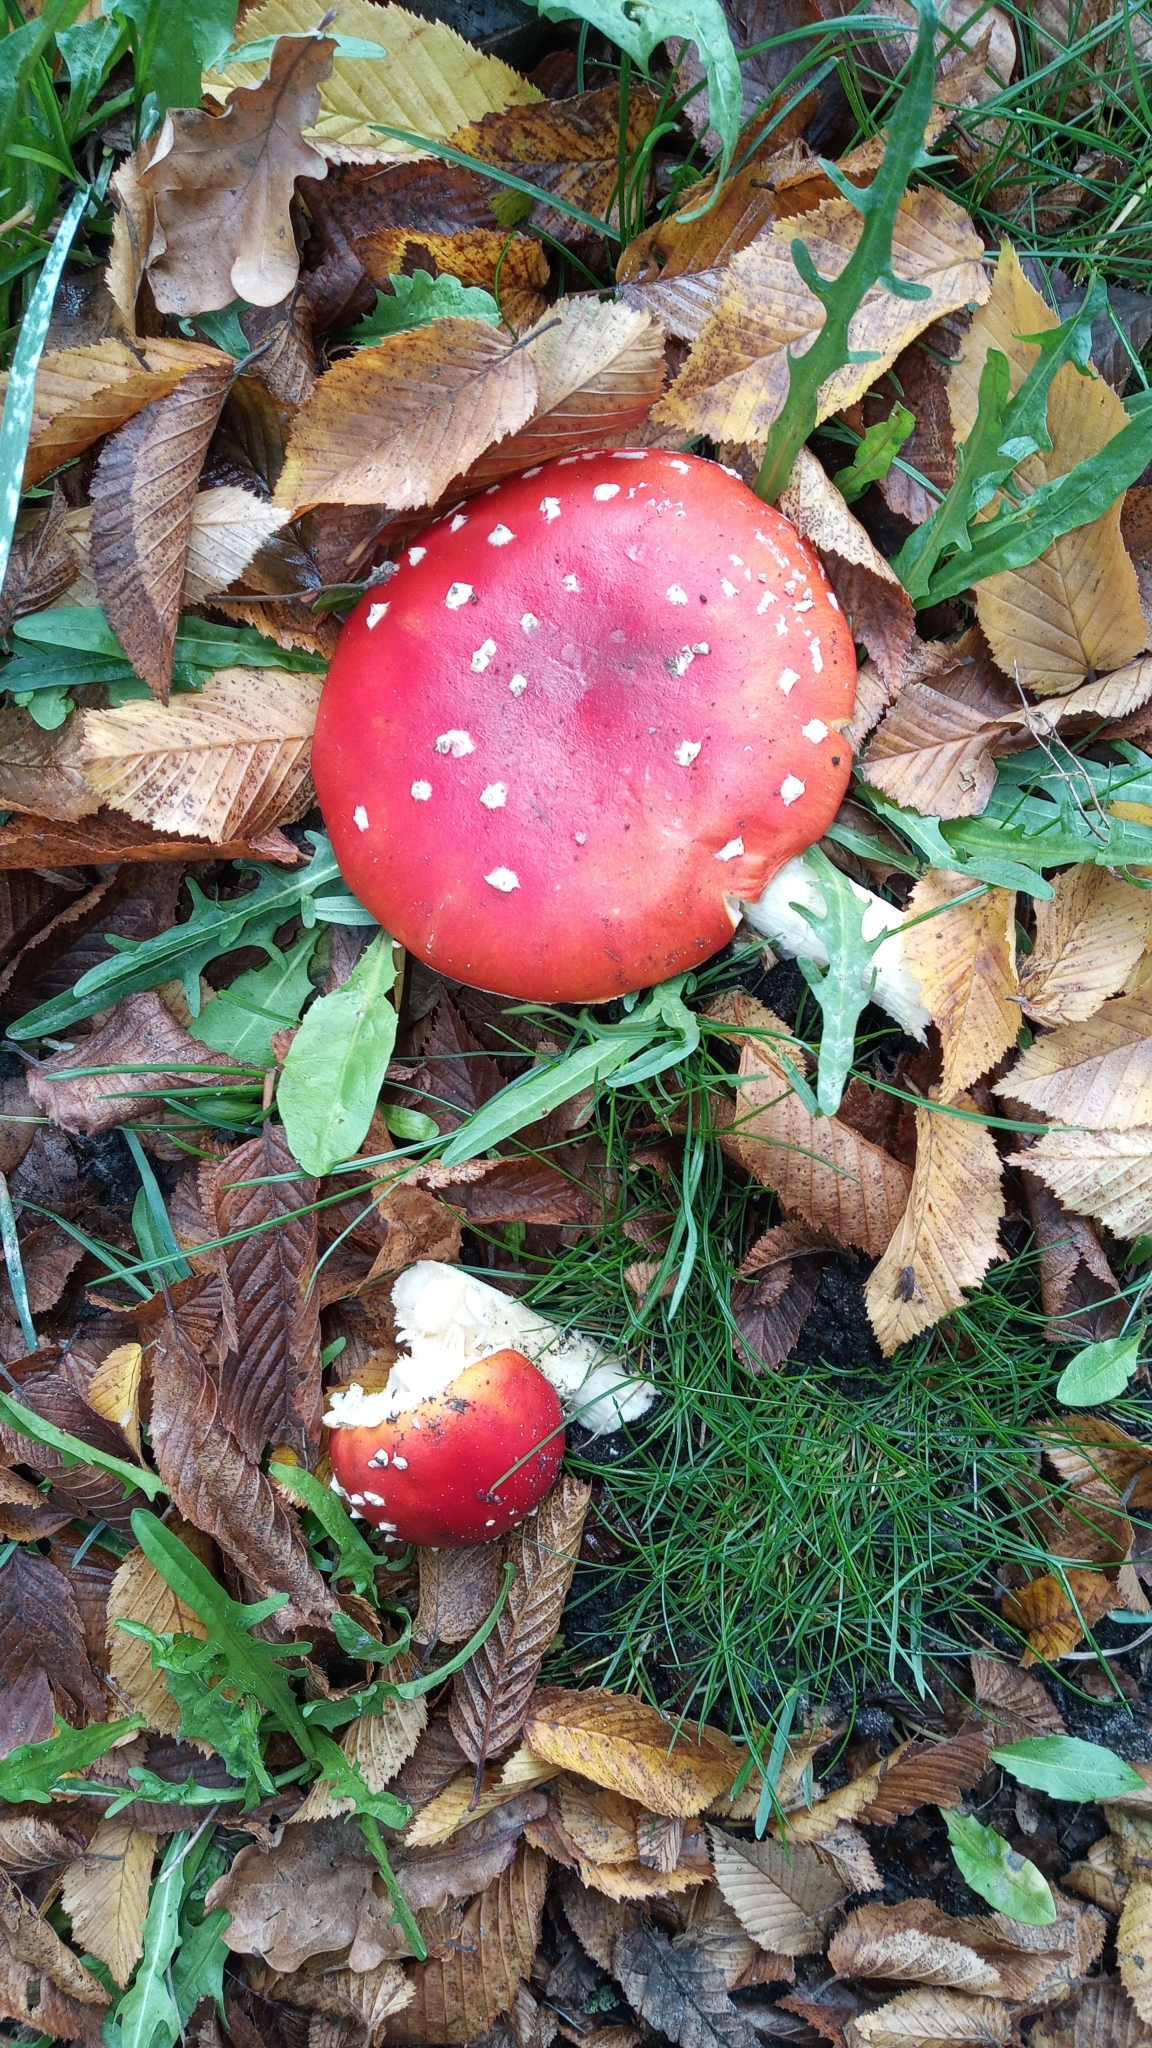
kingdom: Fungi
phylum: Basidiomycota
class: Agaricomycetes
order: Agaricales
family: Amanitaceae
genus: Amanita
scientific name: Amanita muscaria
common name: Fly agaric
